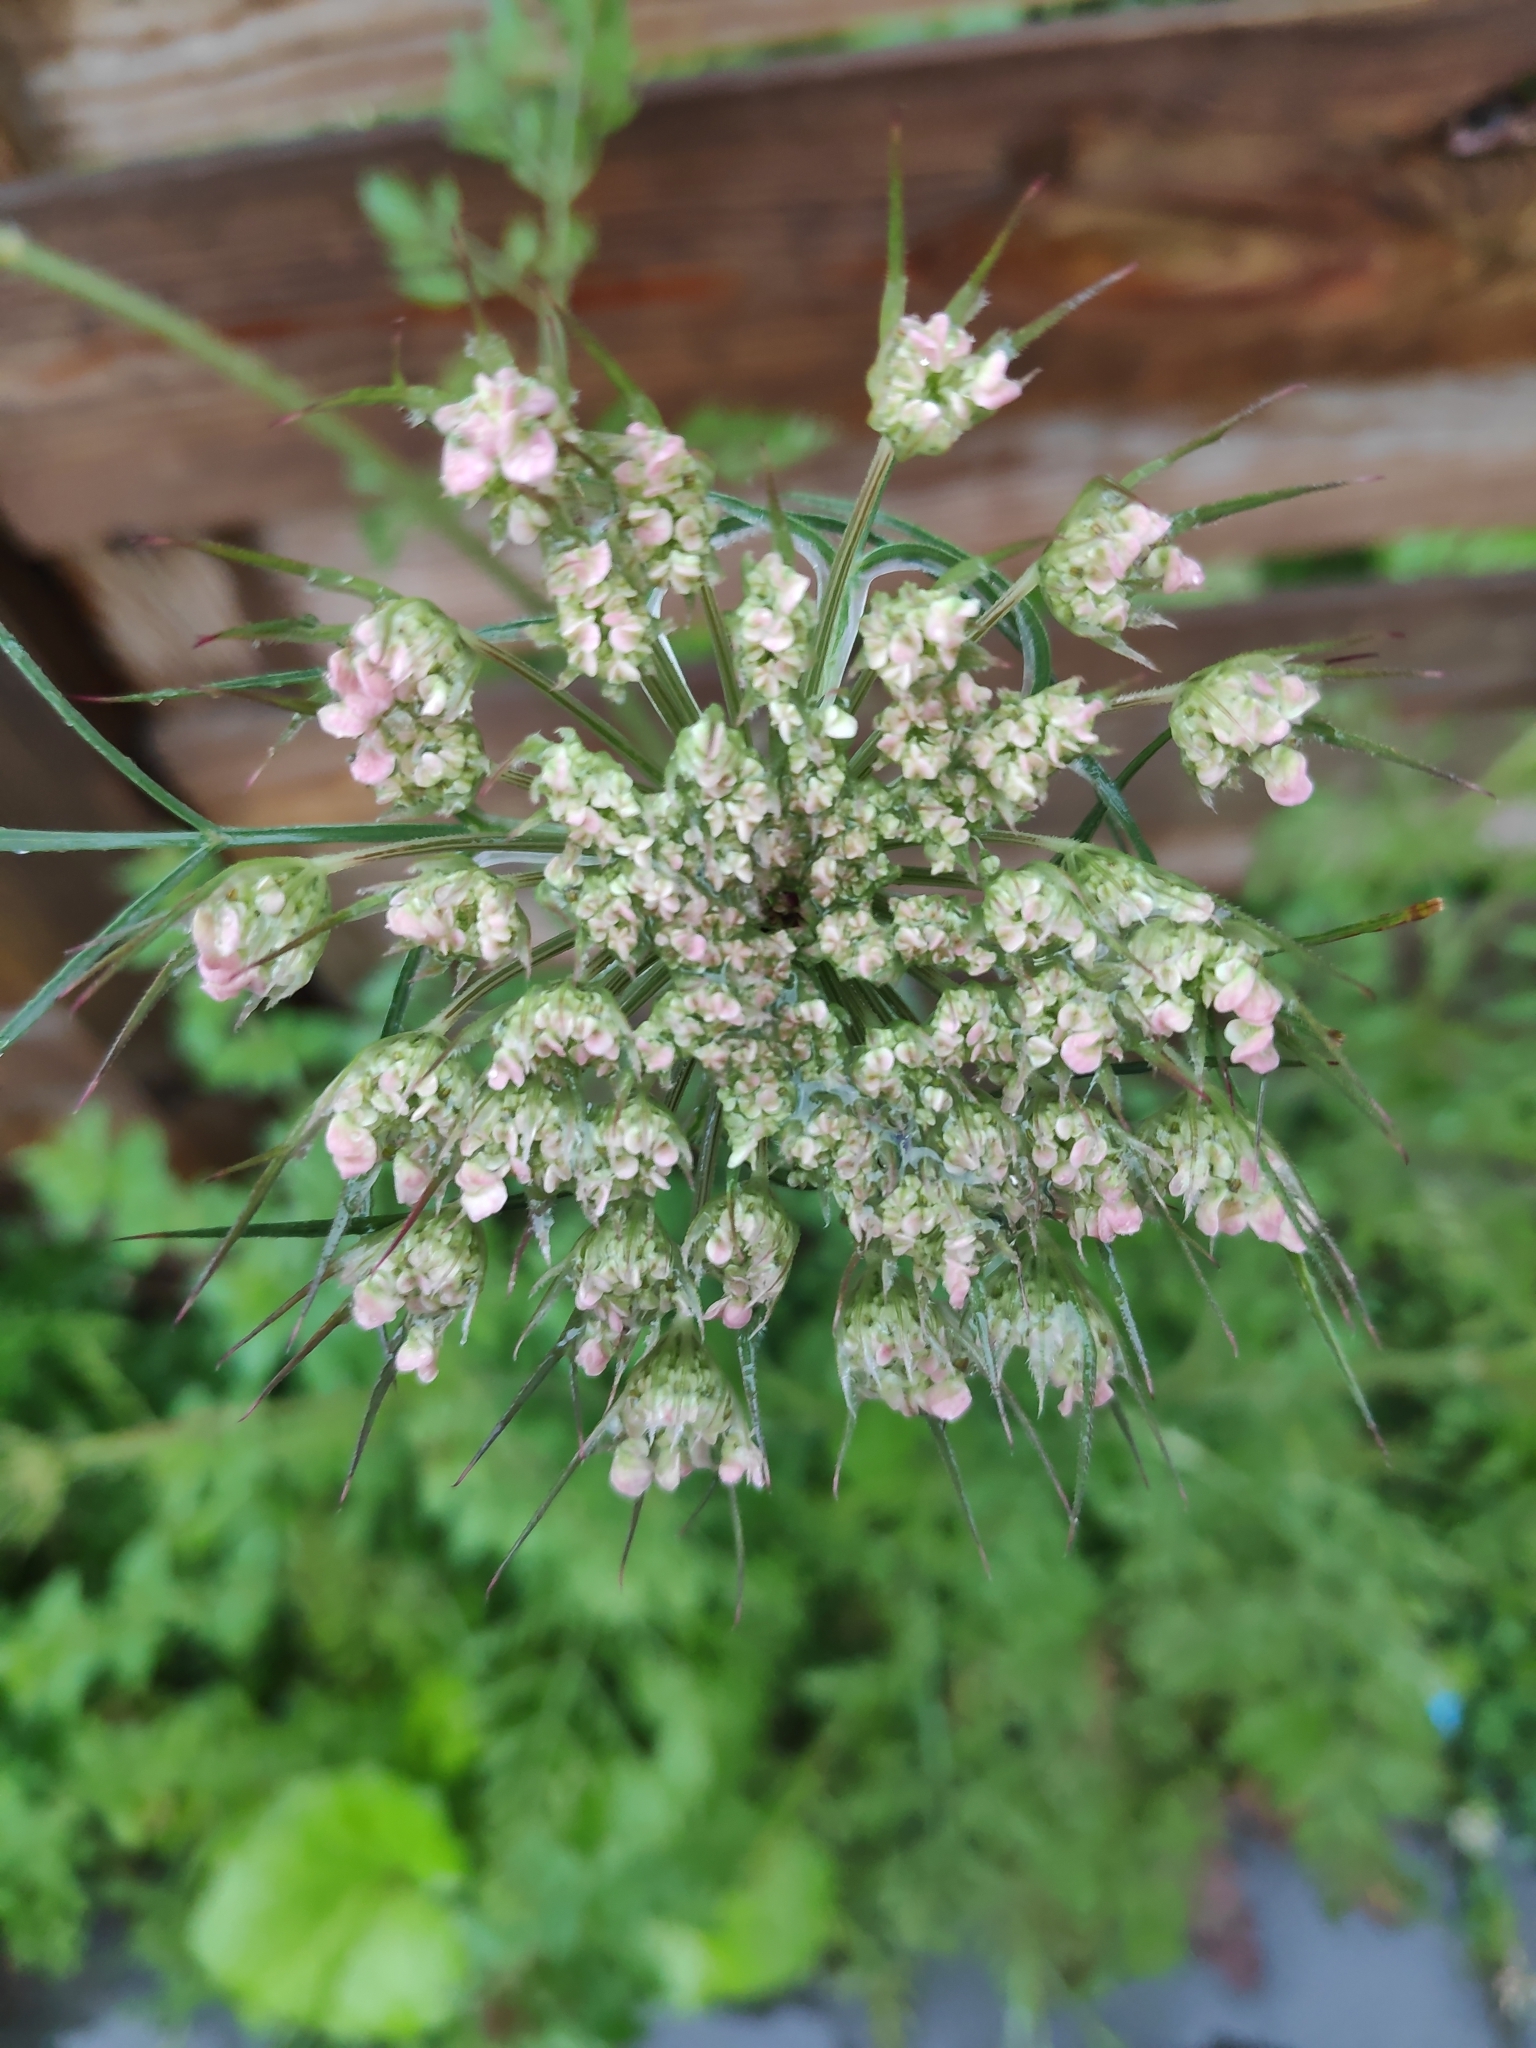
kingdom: Plantae
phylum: Tracheophyta
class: Magnoliopsida
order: Apiales
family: Apiaceae
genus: Daucus
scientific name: Daucus carota
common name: Wild carrot
